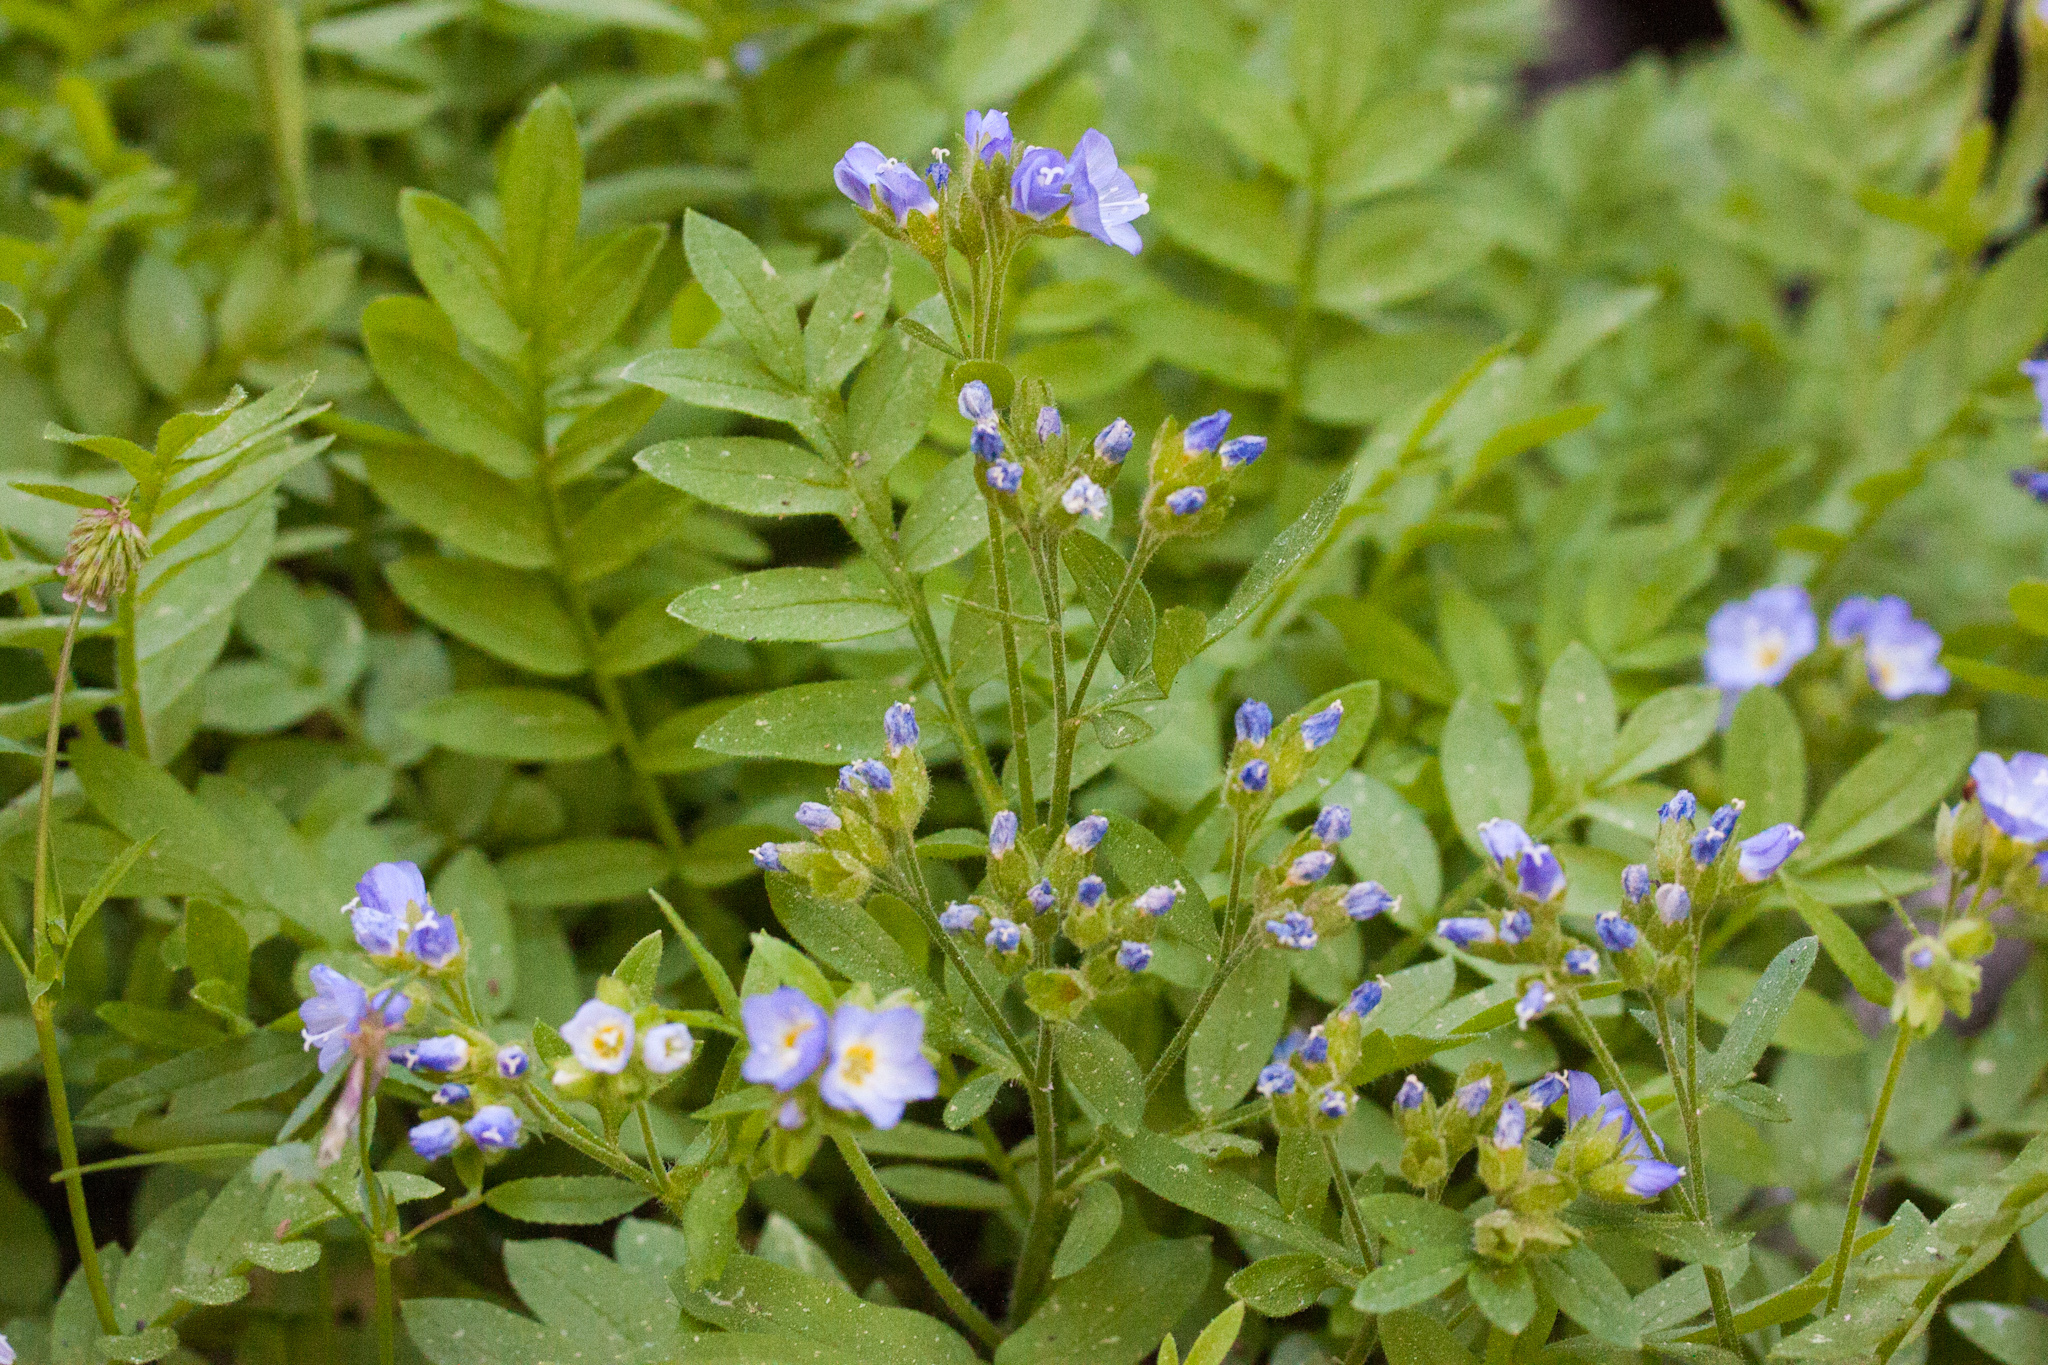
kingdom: Plantae
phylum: Tracheophyta
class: Magnoliopsida
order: Ericales
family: Polemoniaceae
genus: Polemonium
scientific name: Polemonium californicum
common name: California jacob's ladder
